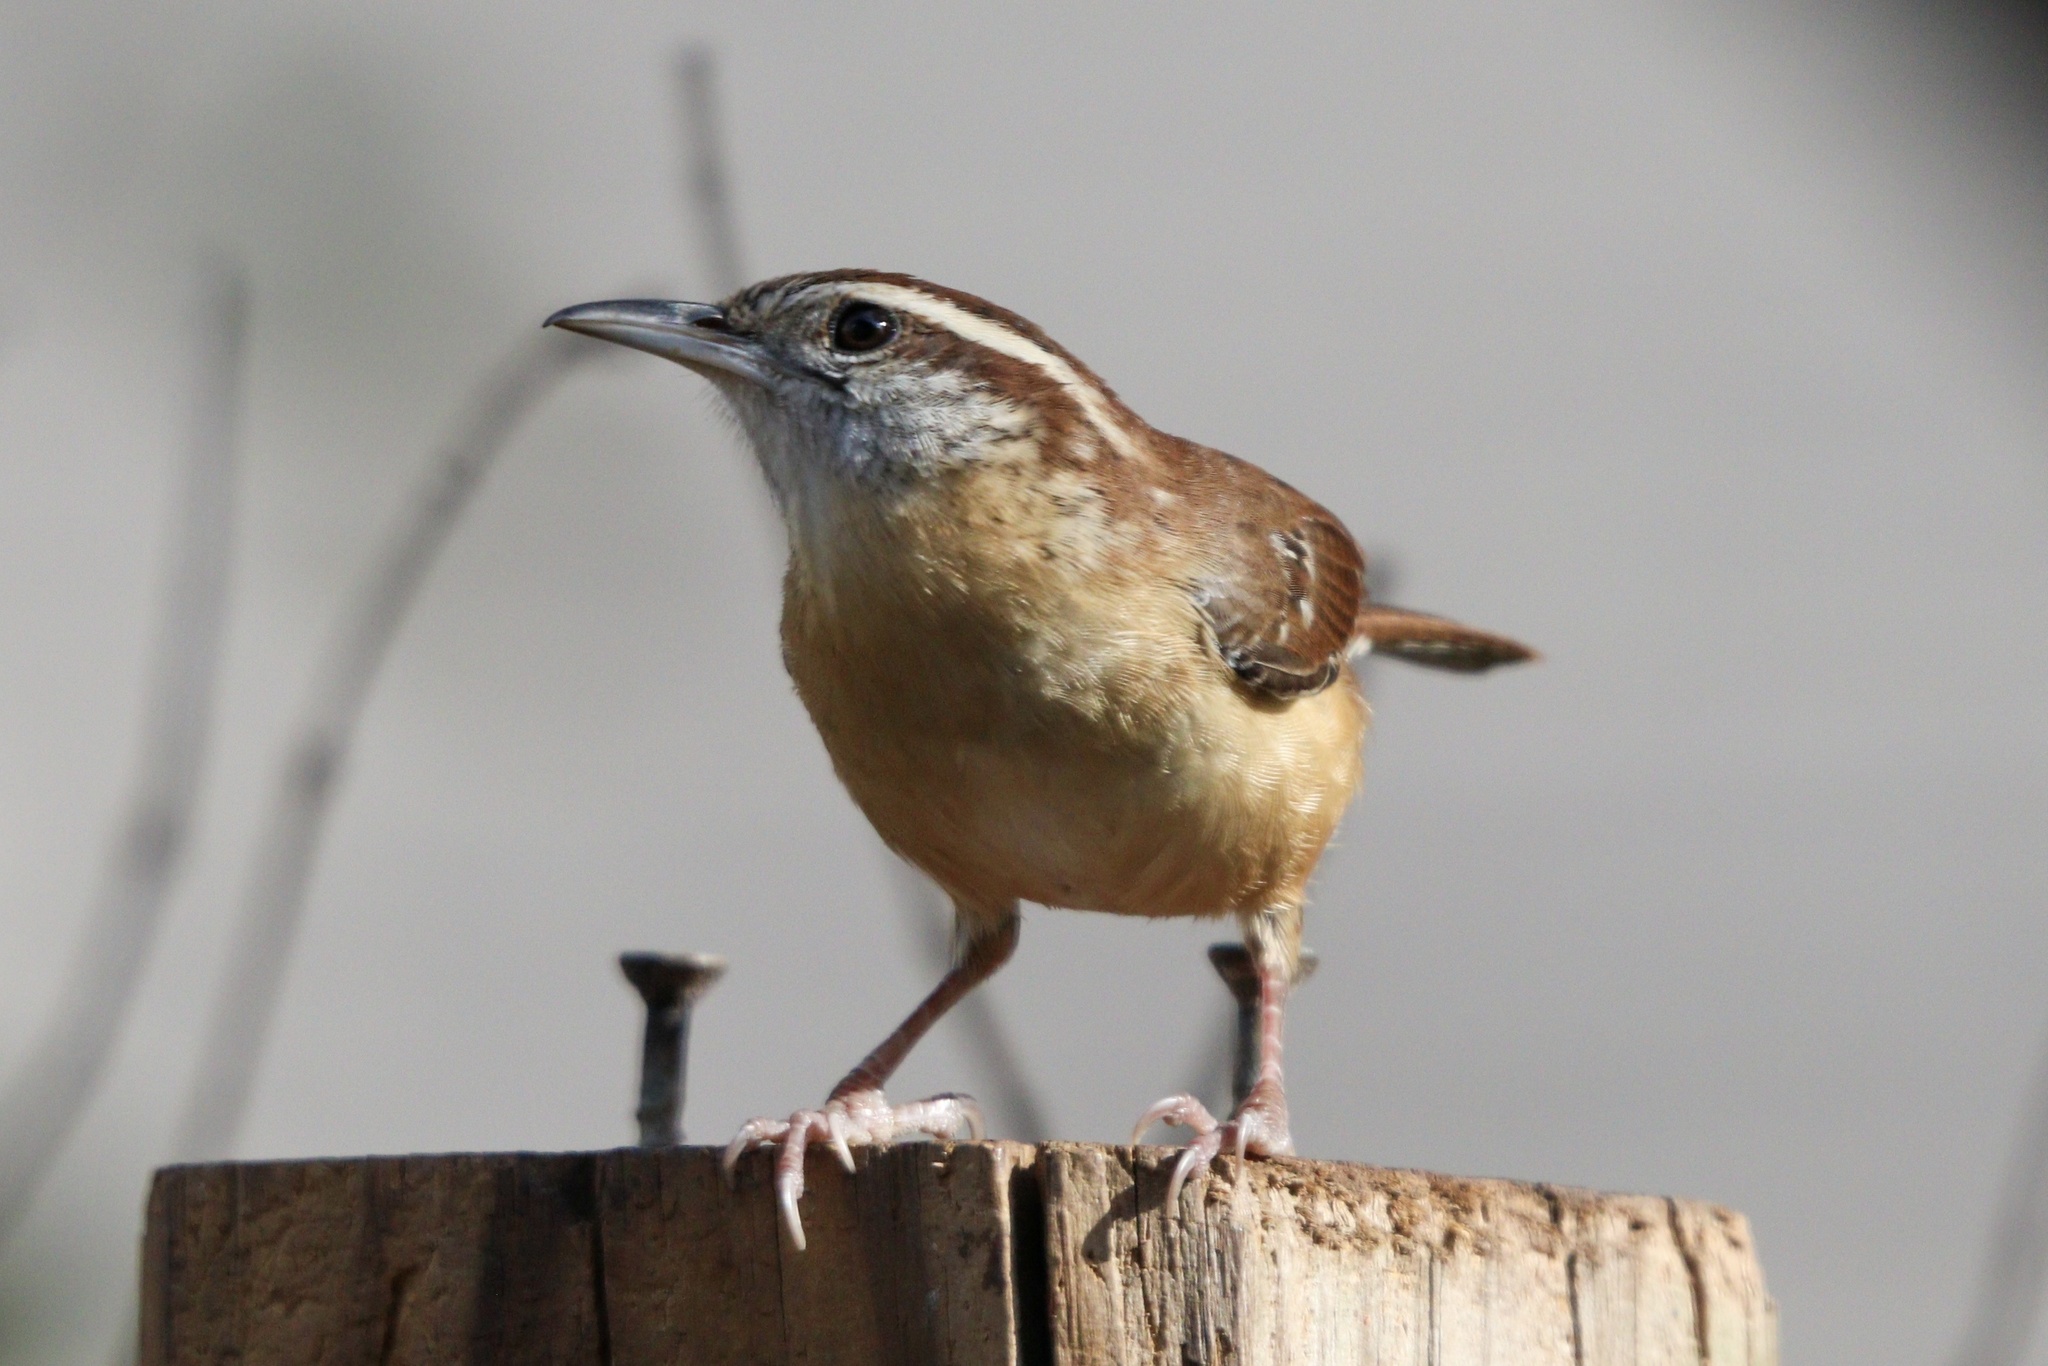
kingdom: Animalia
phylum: Chordata
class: Aves
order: Passeriformes
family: Troglodytidae
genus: Thryothorus
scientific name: Thryothorus ludovicianus
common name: Carolina wren
